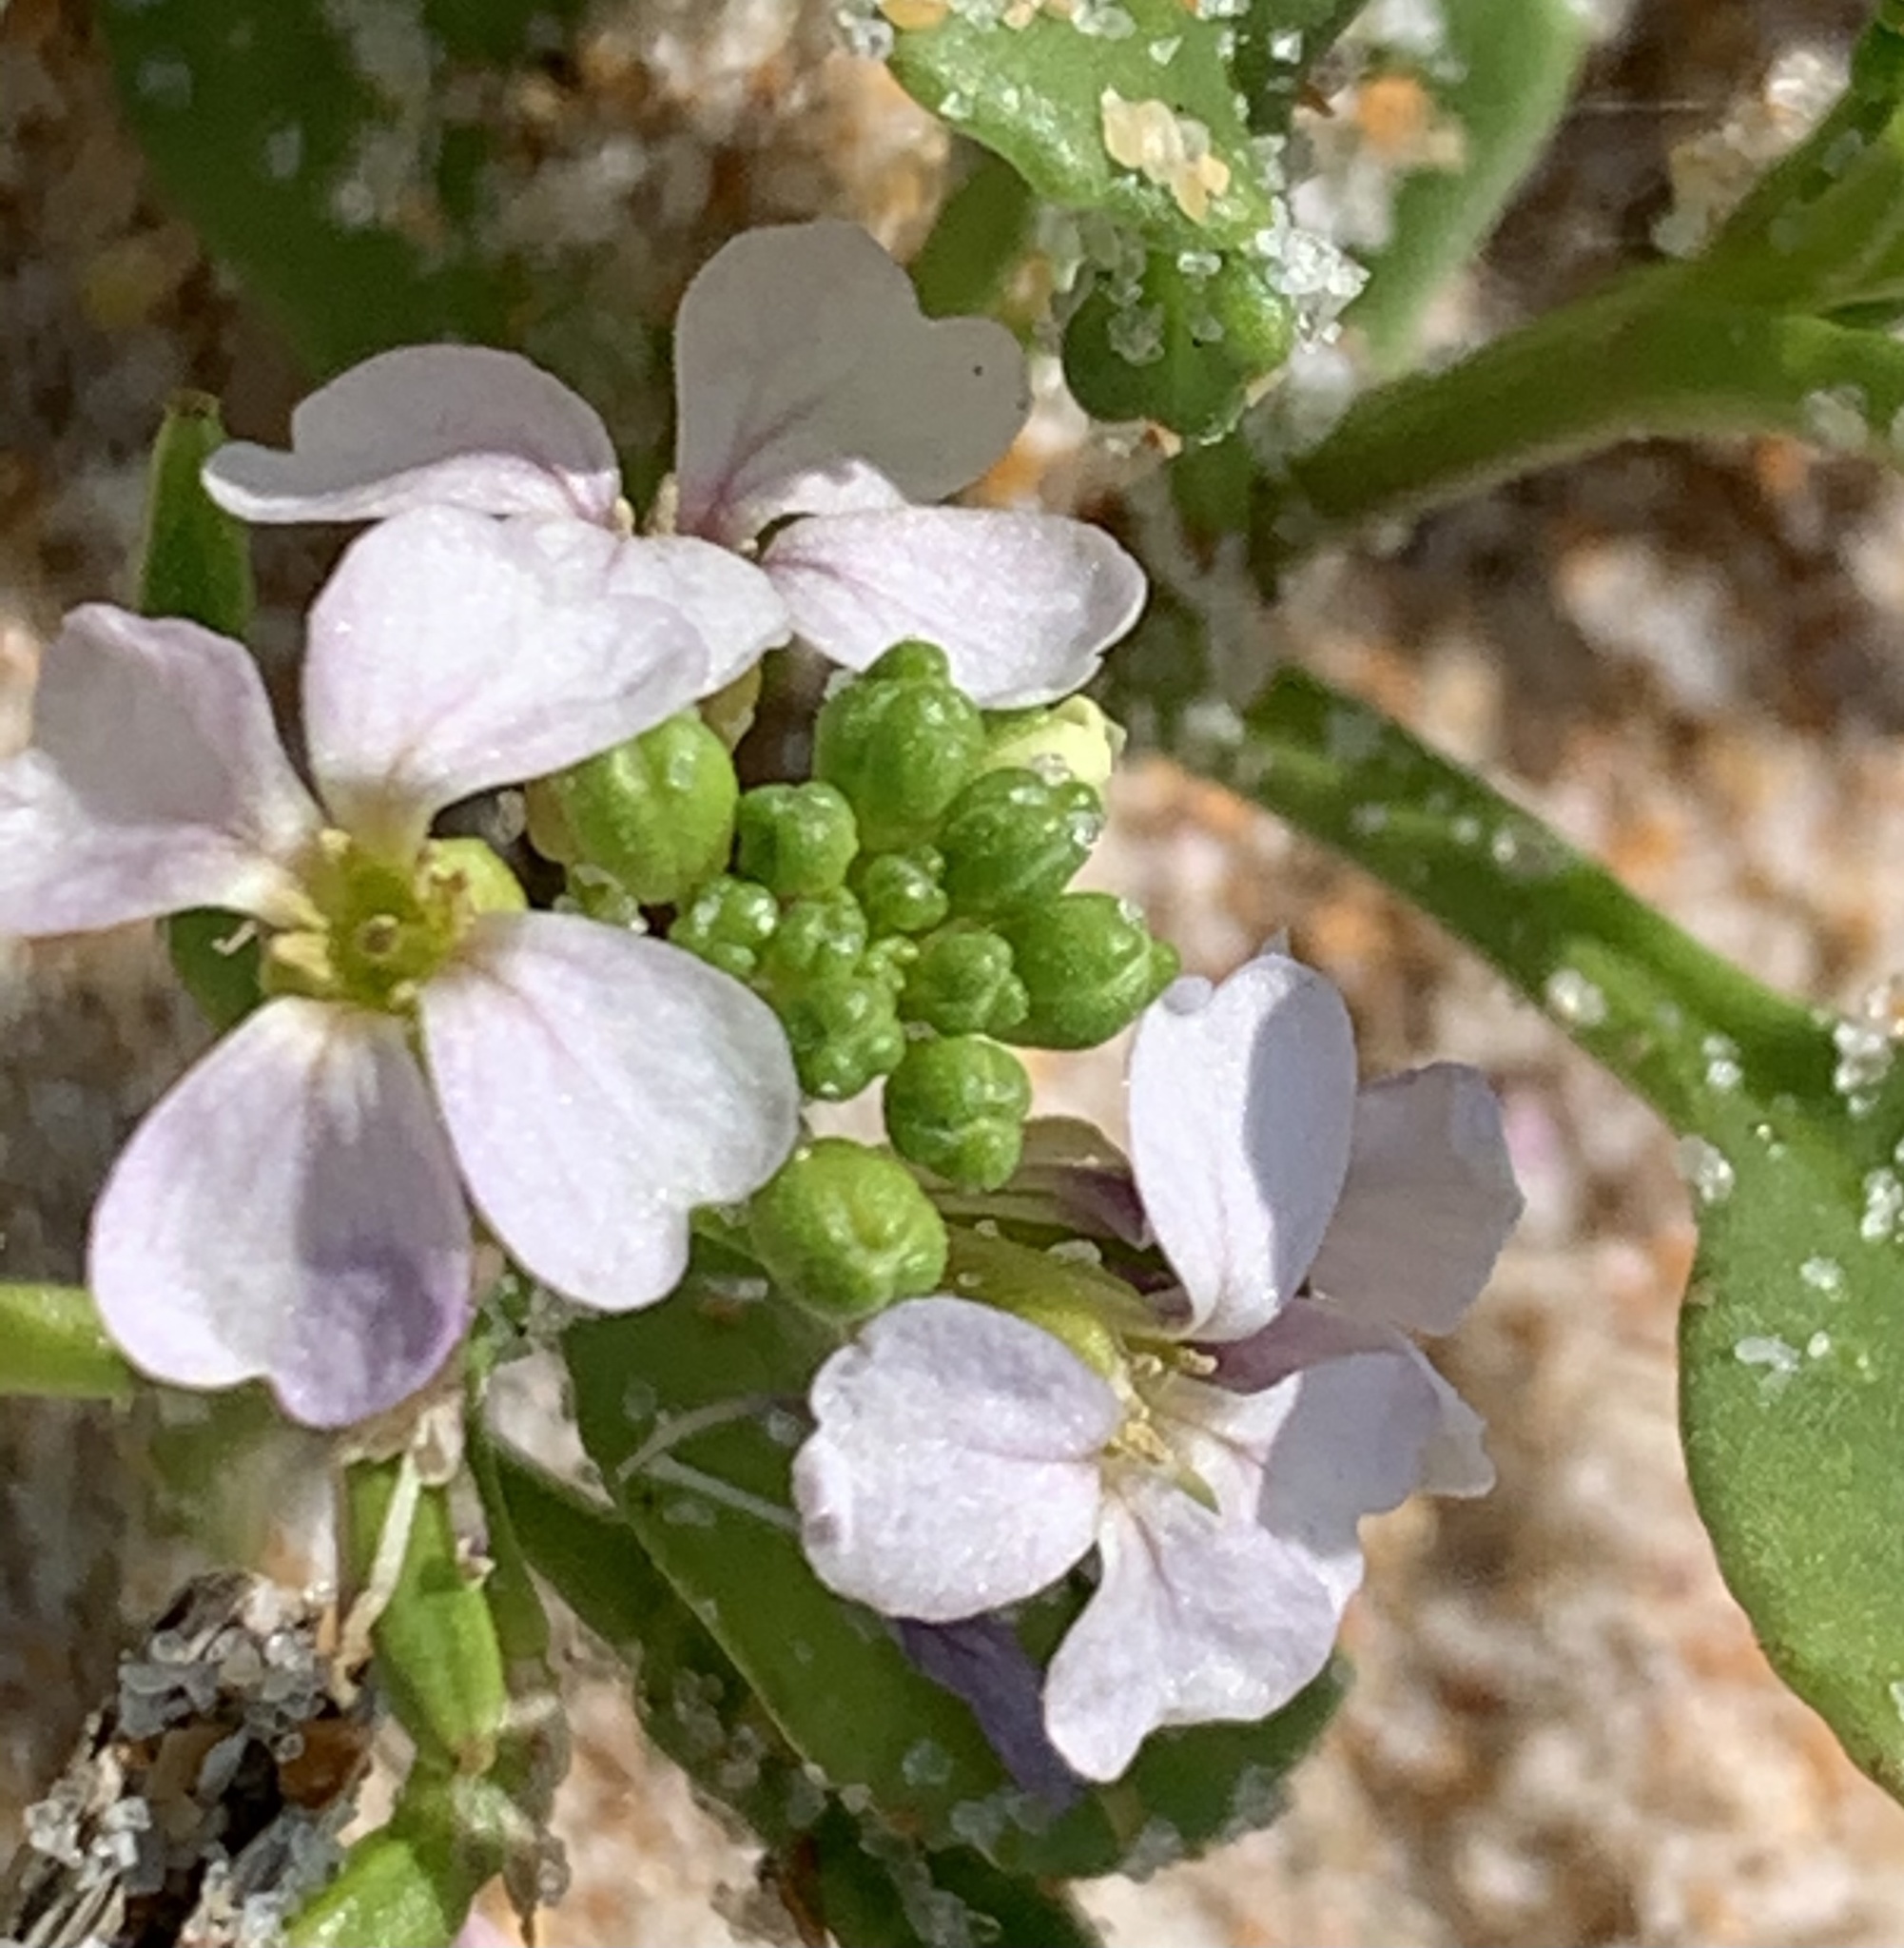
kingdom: Plantae
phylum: Tracheophyta
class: Magnoliopsida
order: Brassicales
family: Brassicaceae
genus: Cakile
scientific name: Cakile edentula
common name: American sea rocket
